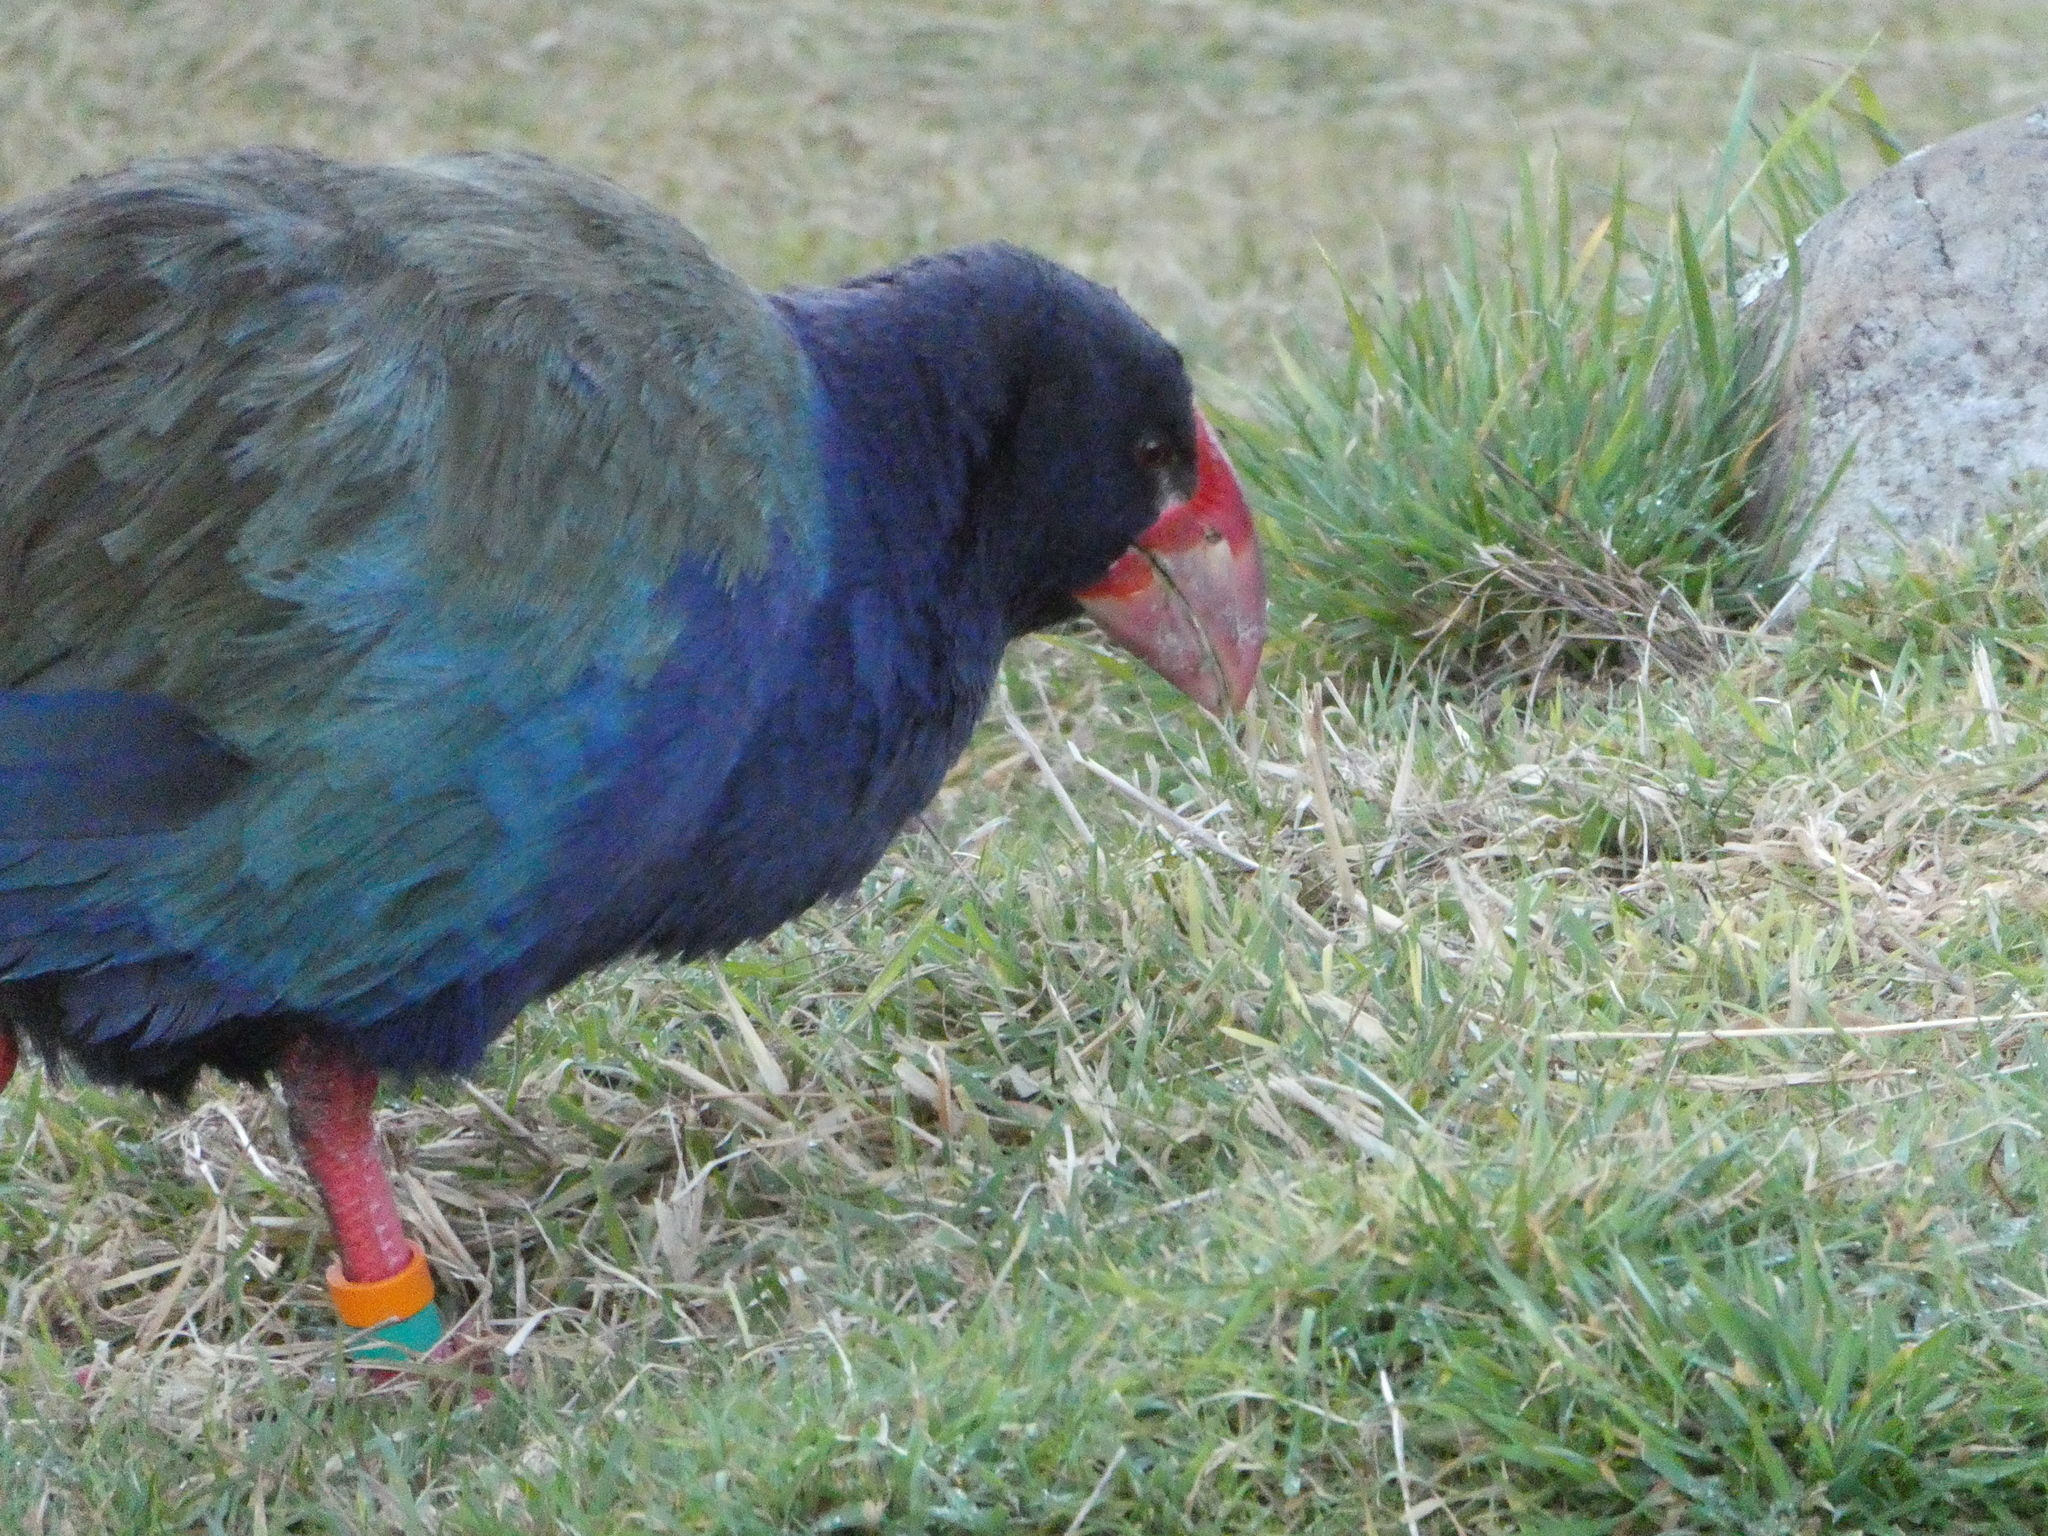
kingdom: Animalia
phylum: Chordata
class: Aves
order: Gruiformes
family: Rallidae
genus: Porphyrio
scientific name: Porphyrio hochstetteri
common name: South island takahe
